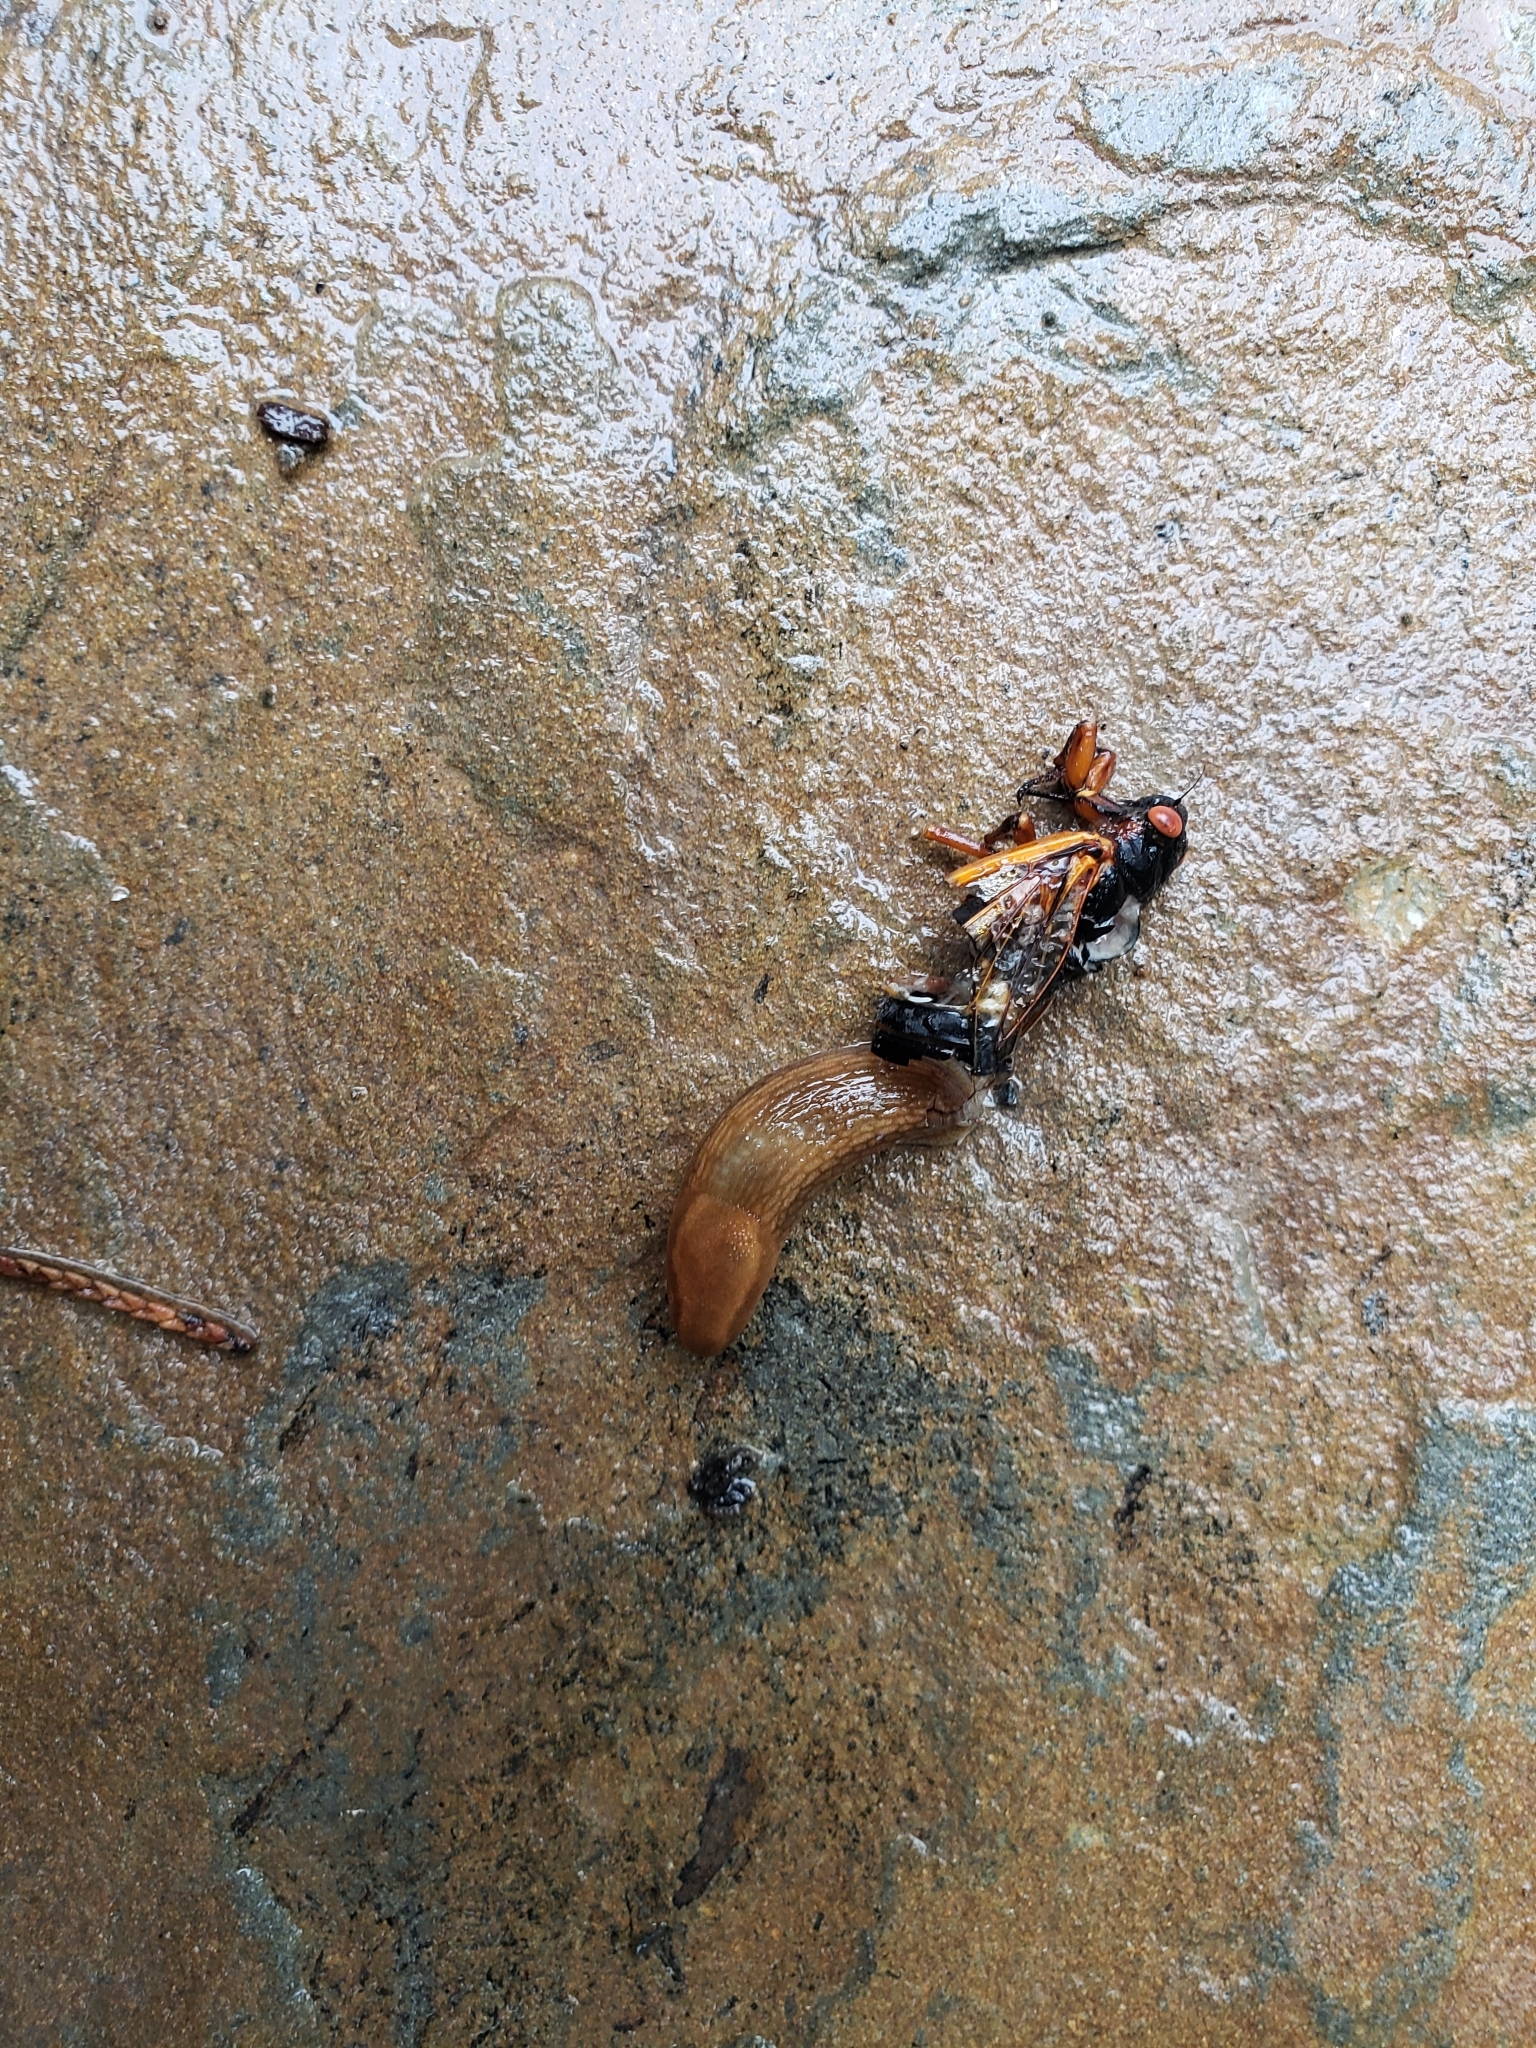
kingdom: Animalia
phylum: Arthropoda
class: Insecta
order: Hemiptera
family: Cicadidae
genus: Magicicada
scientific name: Magicicada septendecim
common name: Periodical cicada
